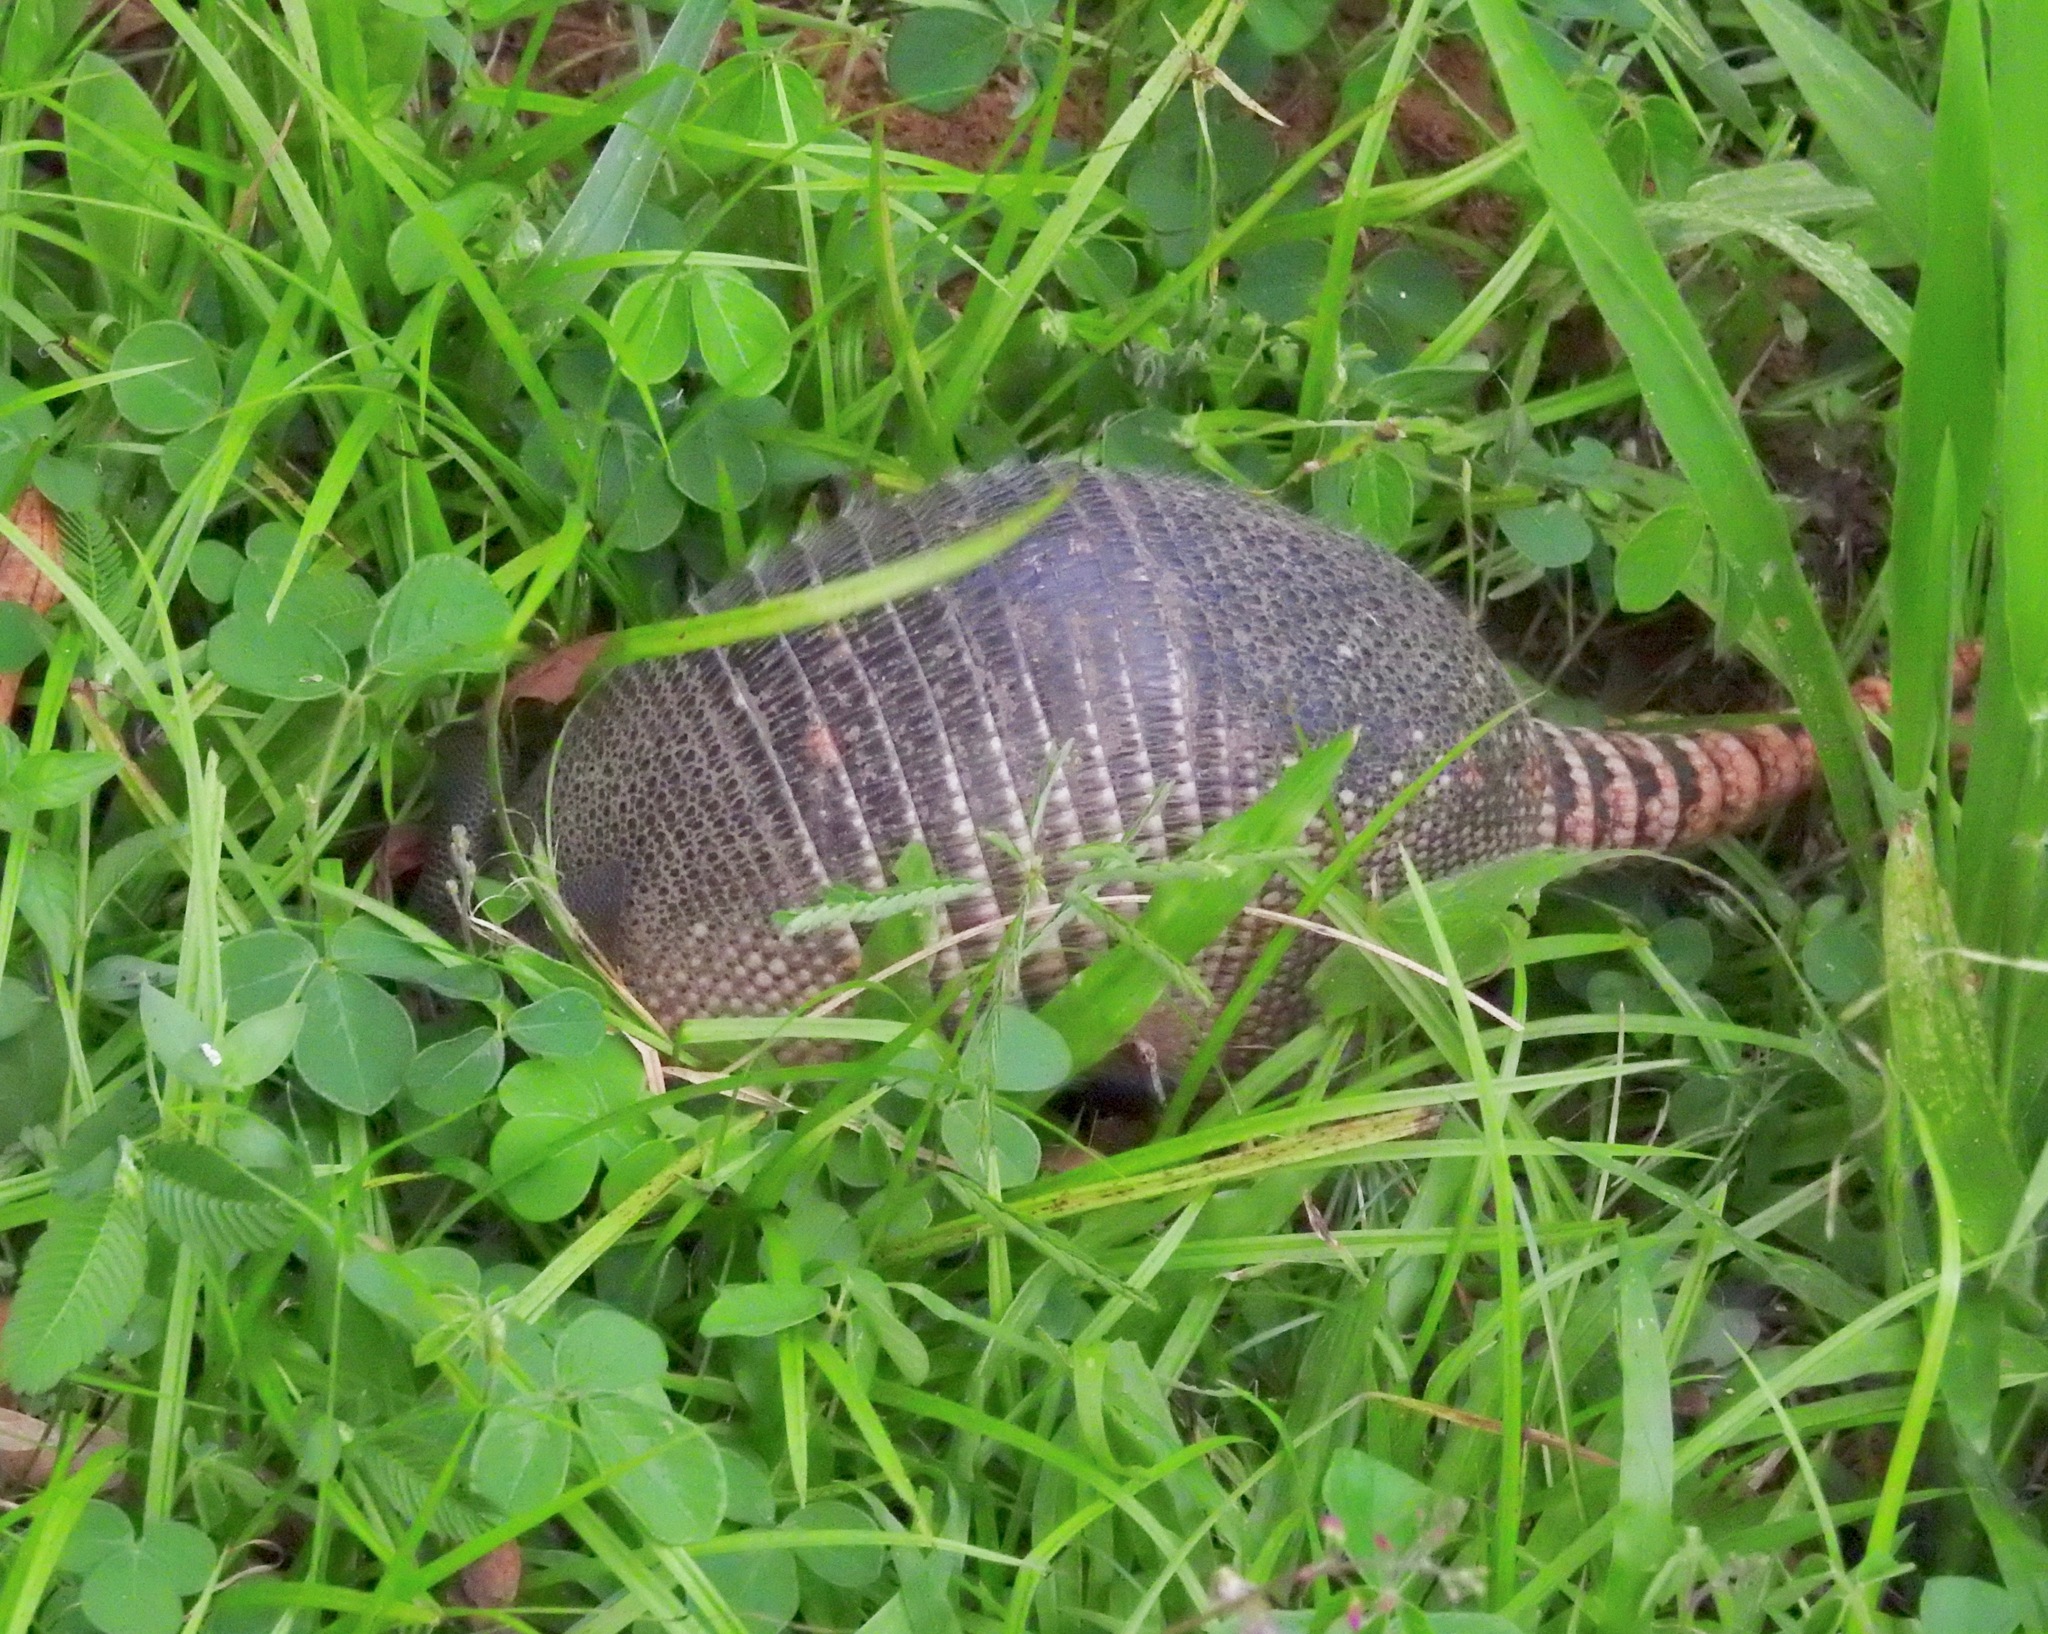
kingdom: Animalia
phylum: Chordata
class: Mammalia
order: Cingulata
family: Dasypodidae
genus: Dasypus
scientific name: Dasypus novemcinctus
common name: Nine-banded armadillo
